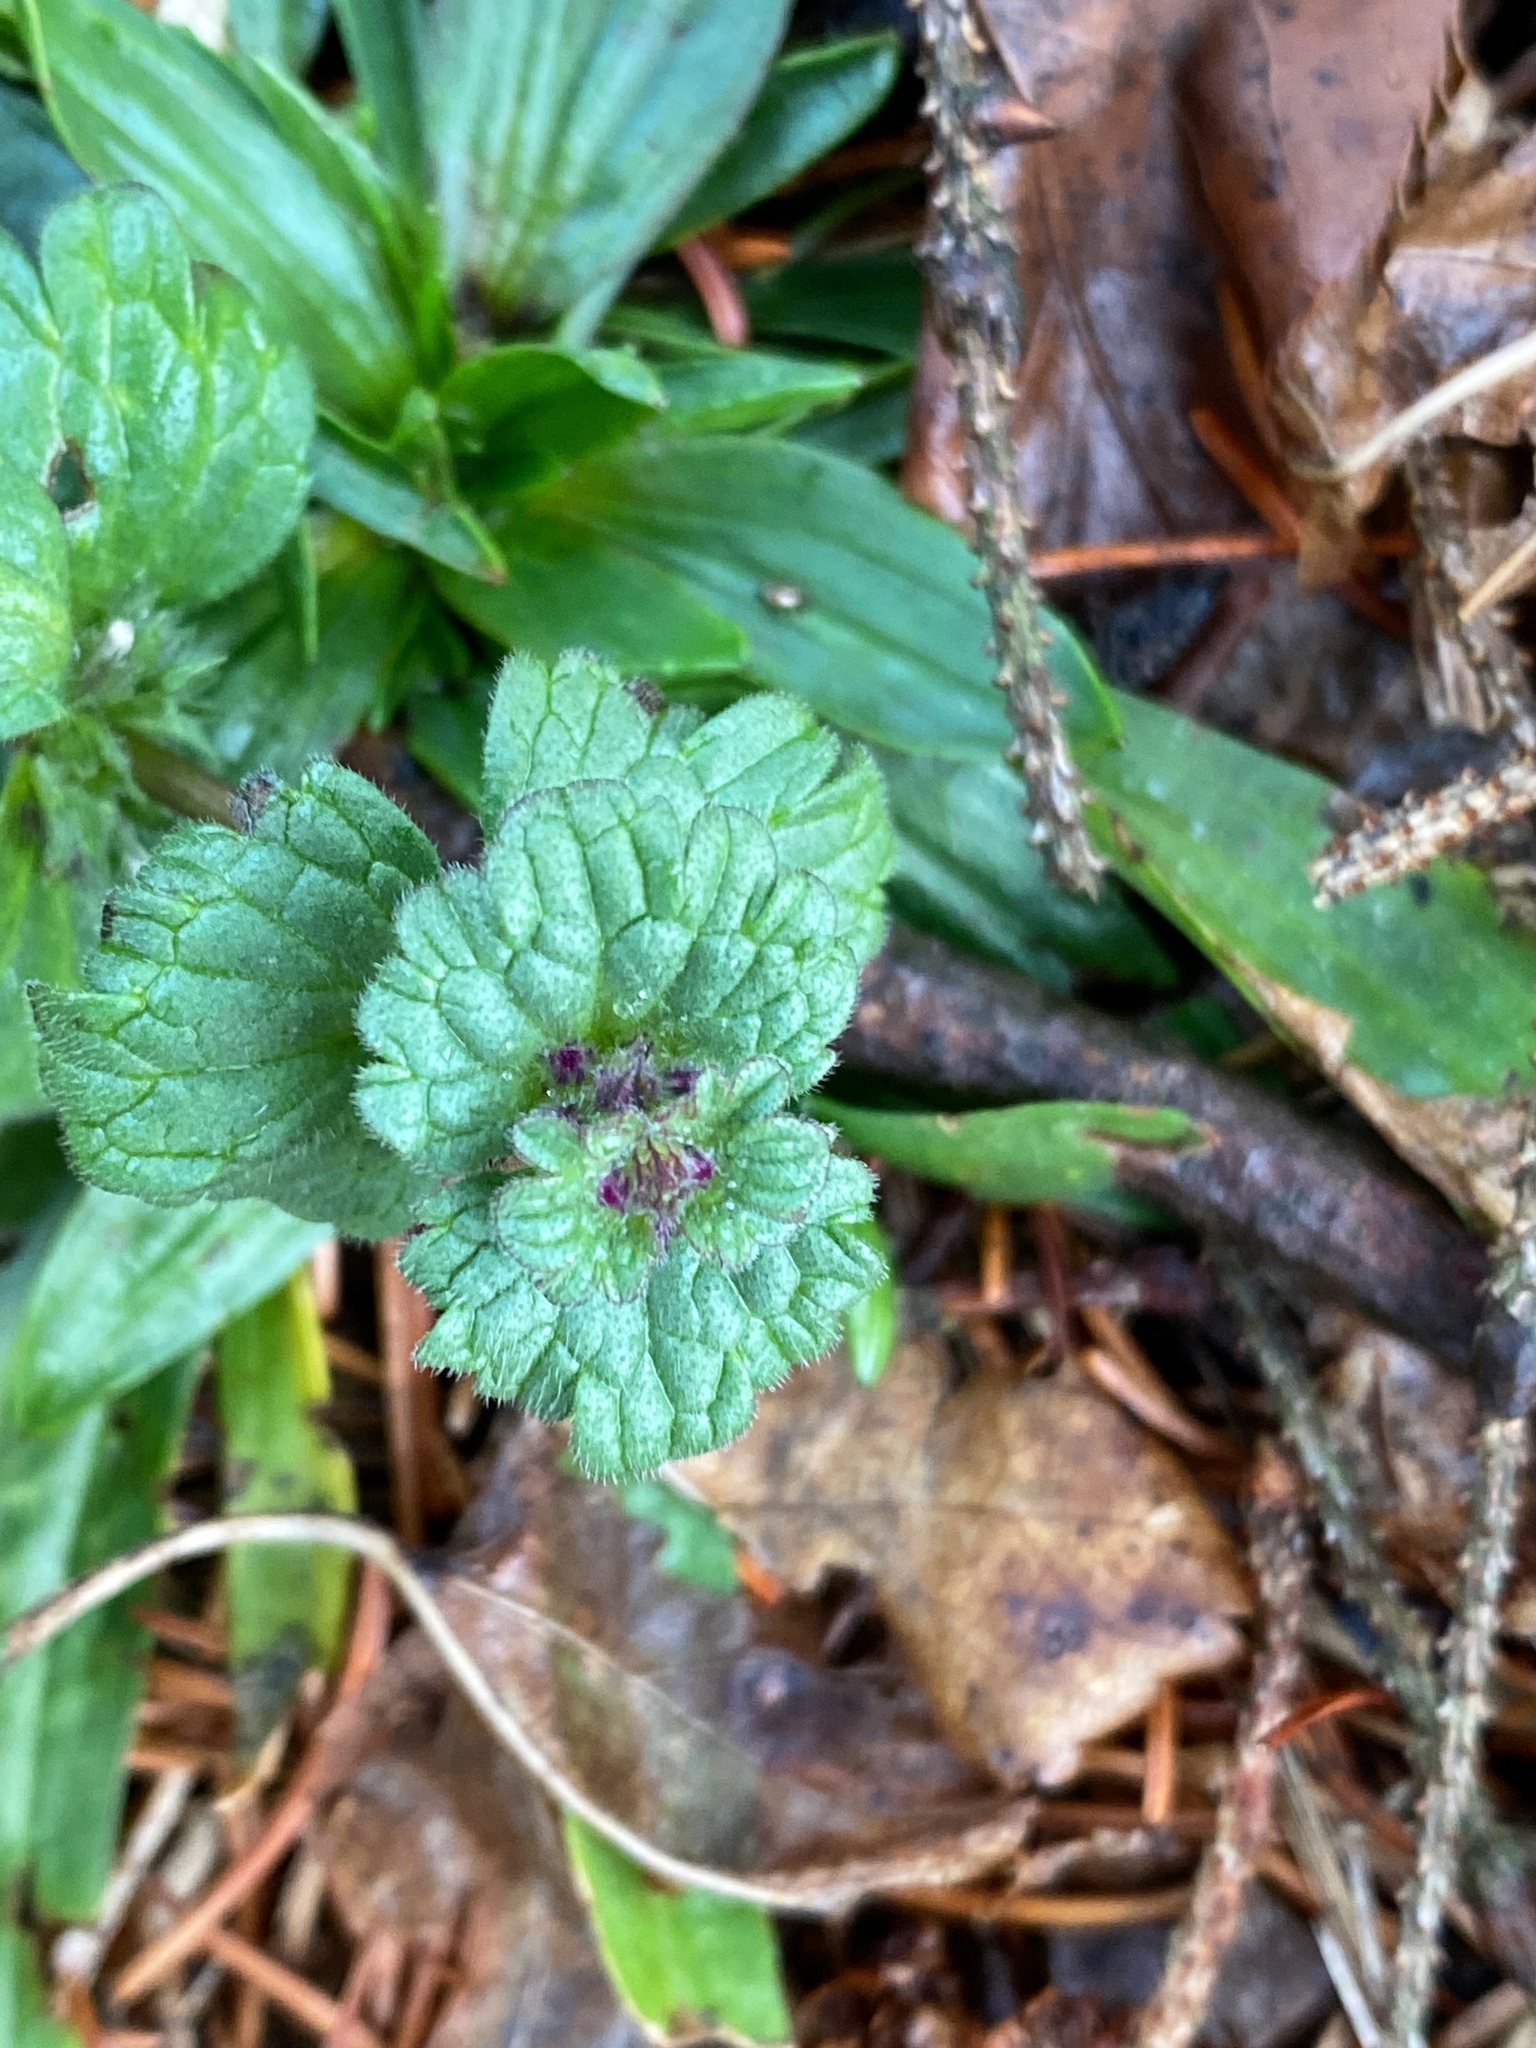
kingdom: Plantae
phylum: Tracheophyta
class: Magnoliopsida
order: Lamiales
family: Lamiaceae
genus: Lamium
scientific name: Lamium amplexicaule
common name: Henbit dead-nettle
